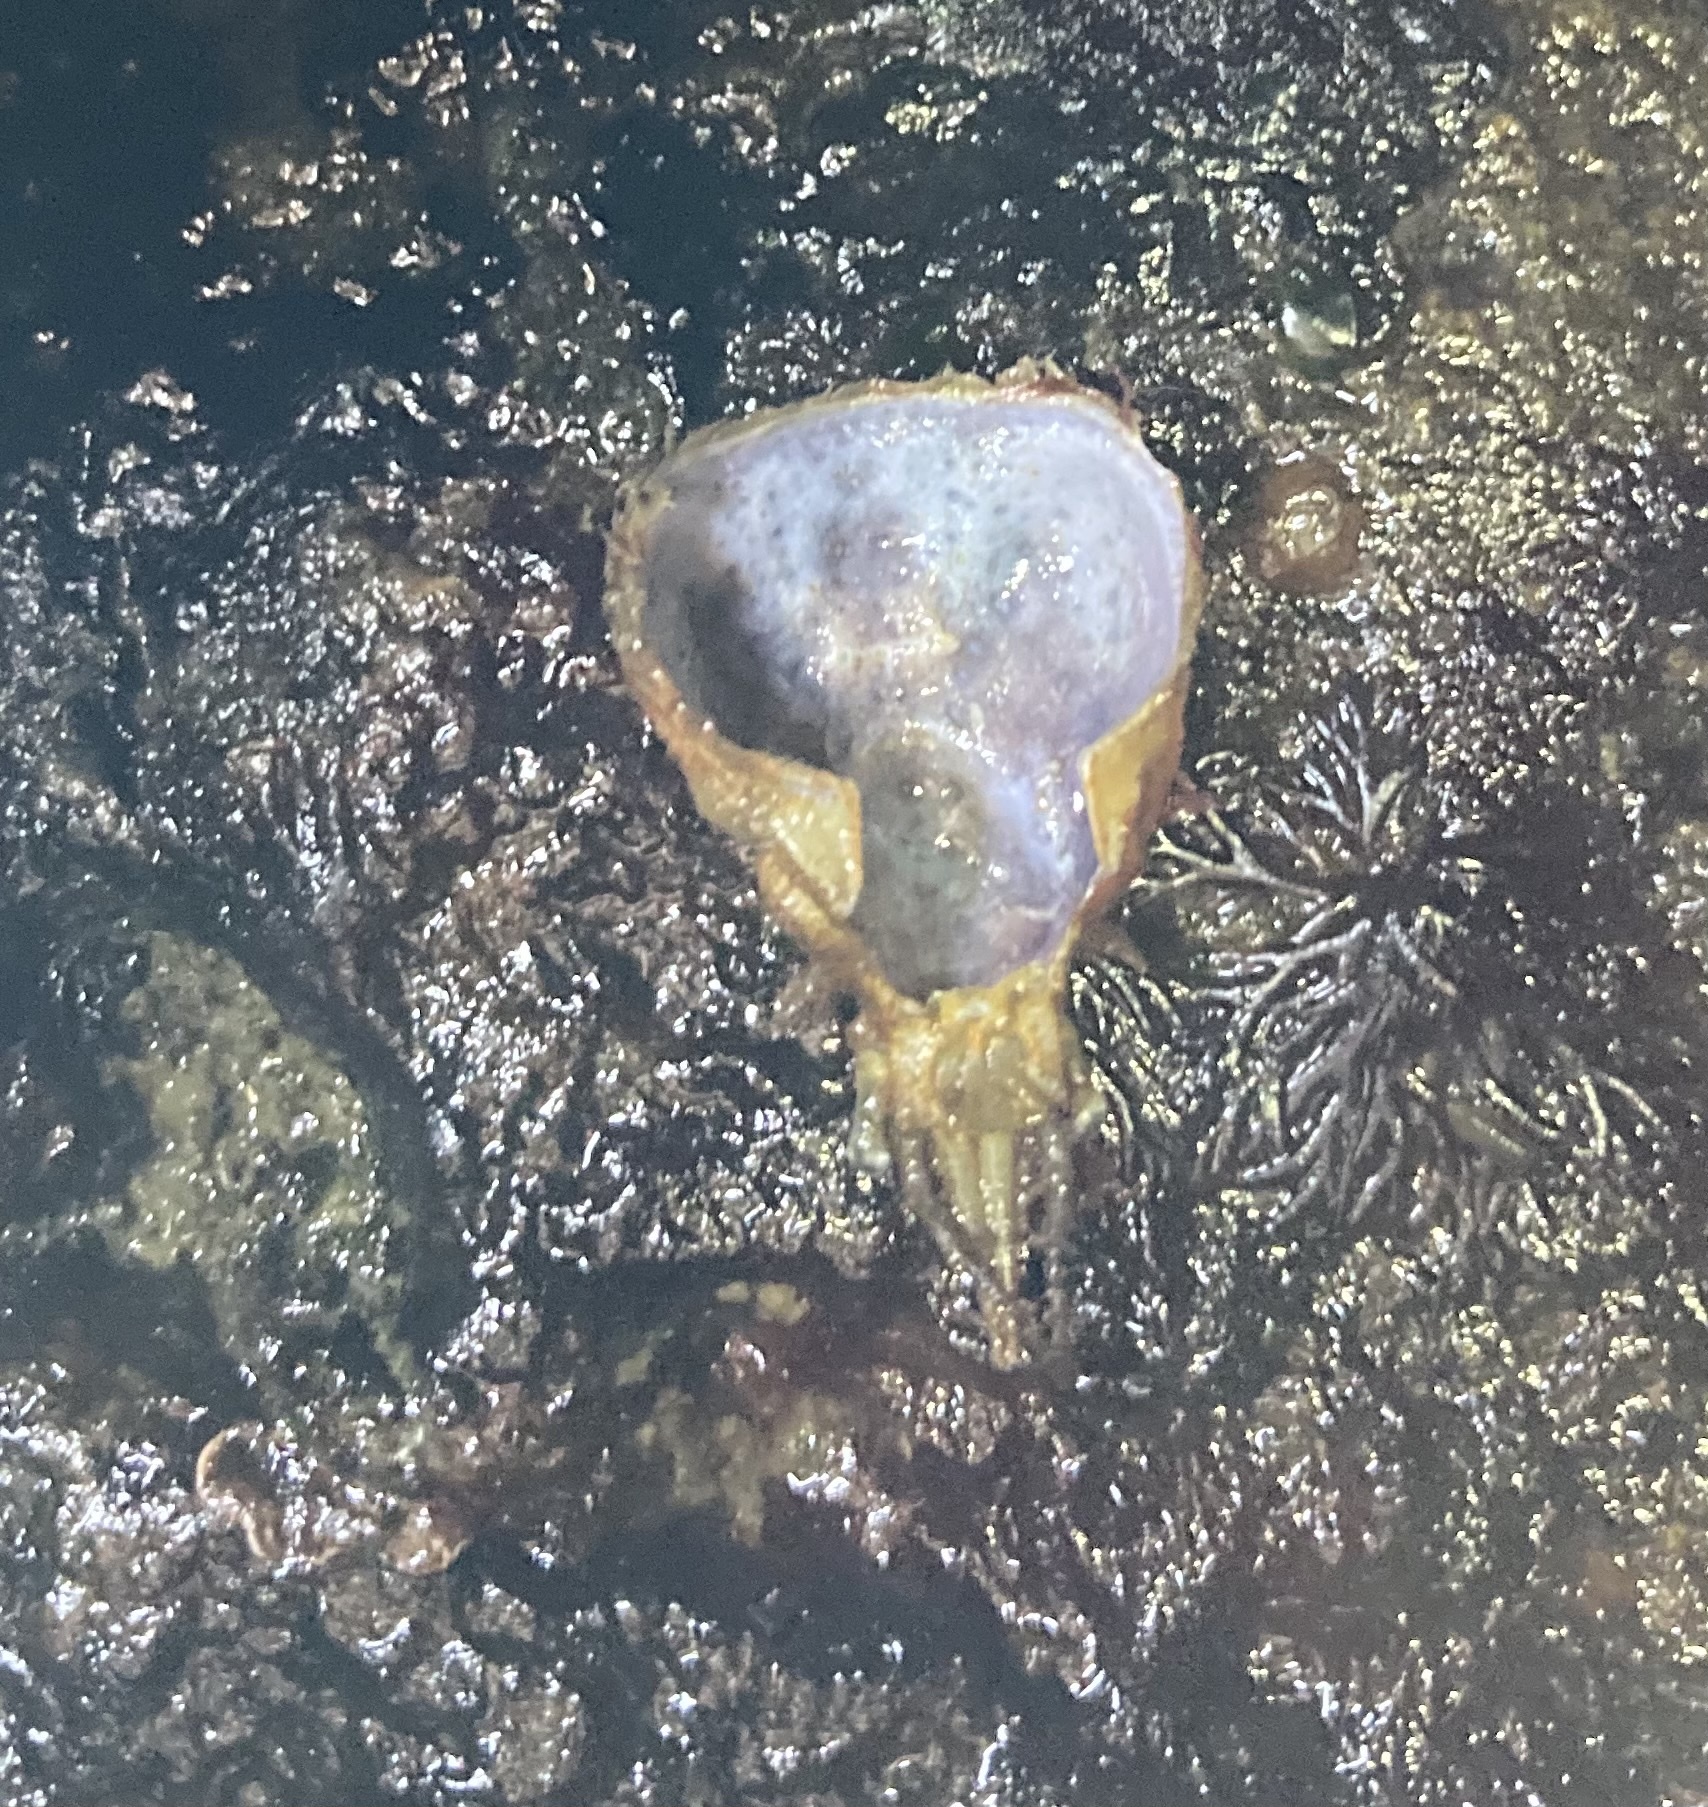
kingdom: Animalia
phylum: Arthropoda
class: Malacostraca
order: Decapoda
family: Oregoniidae
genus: Oregonia
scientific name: Oregonia gracilis
